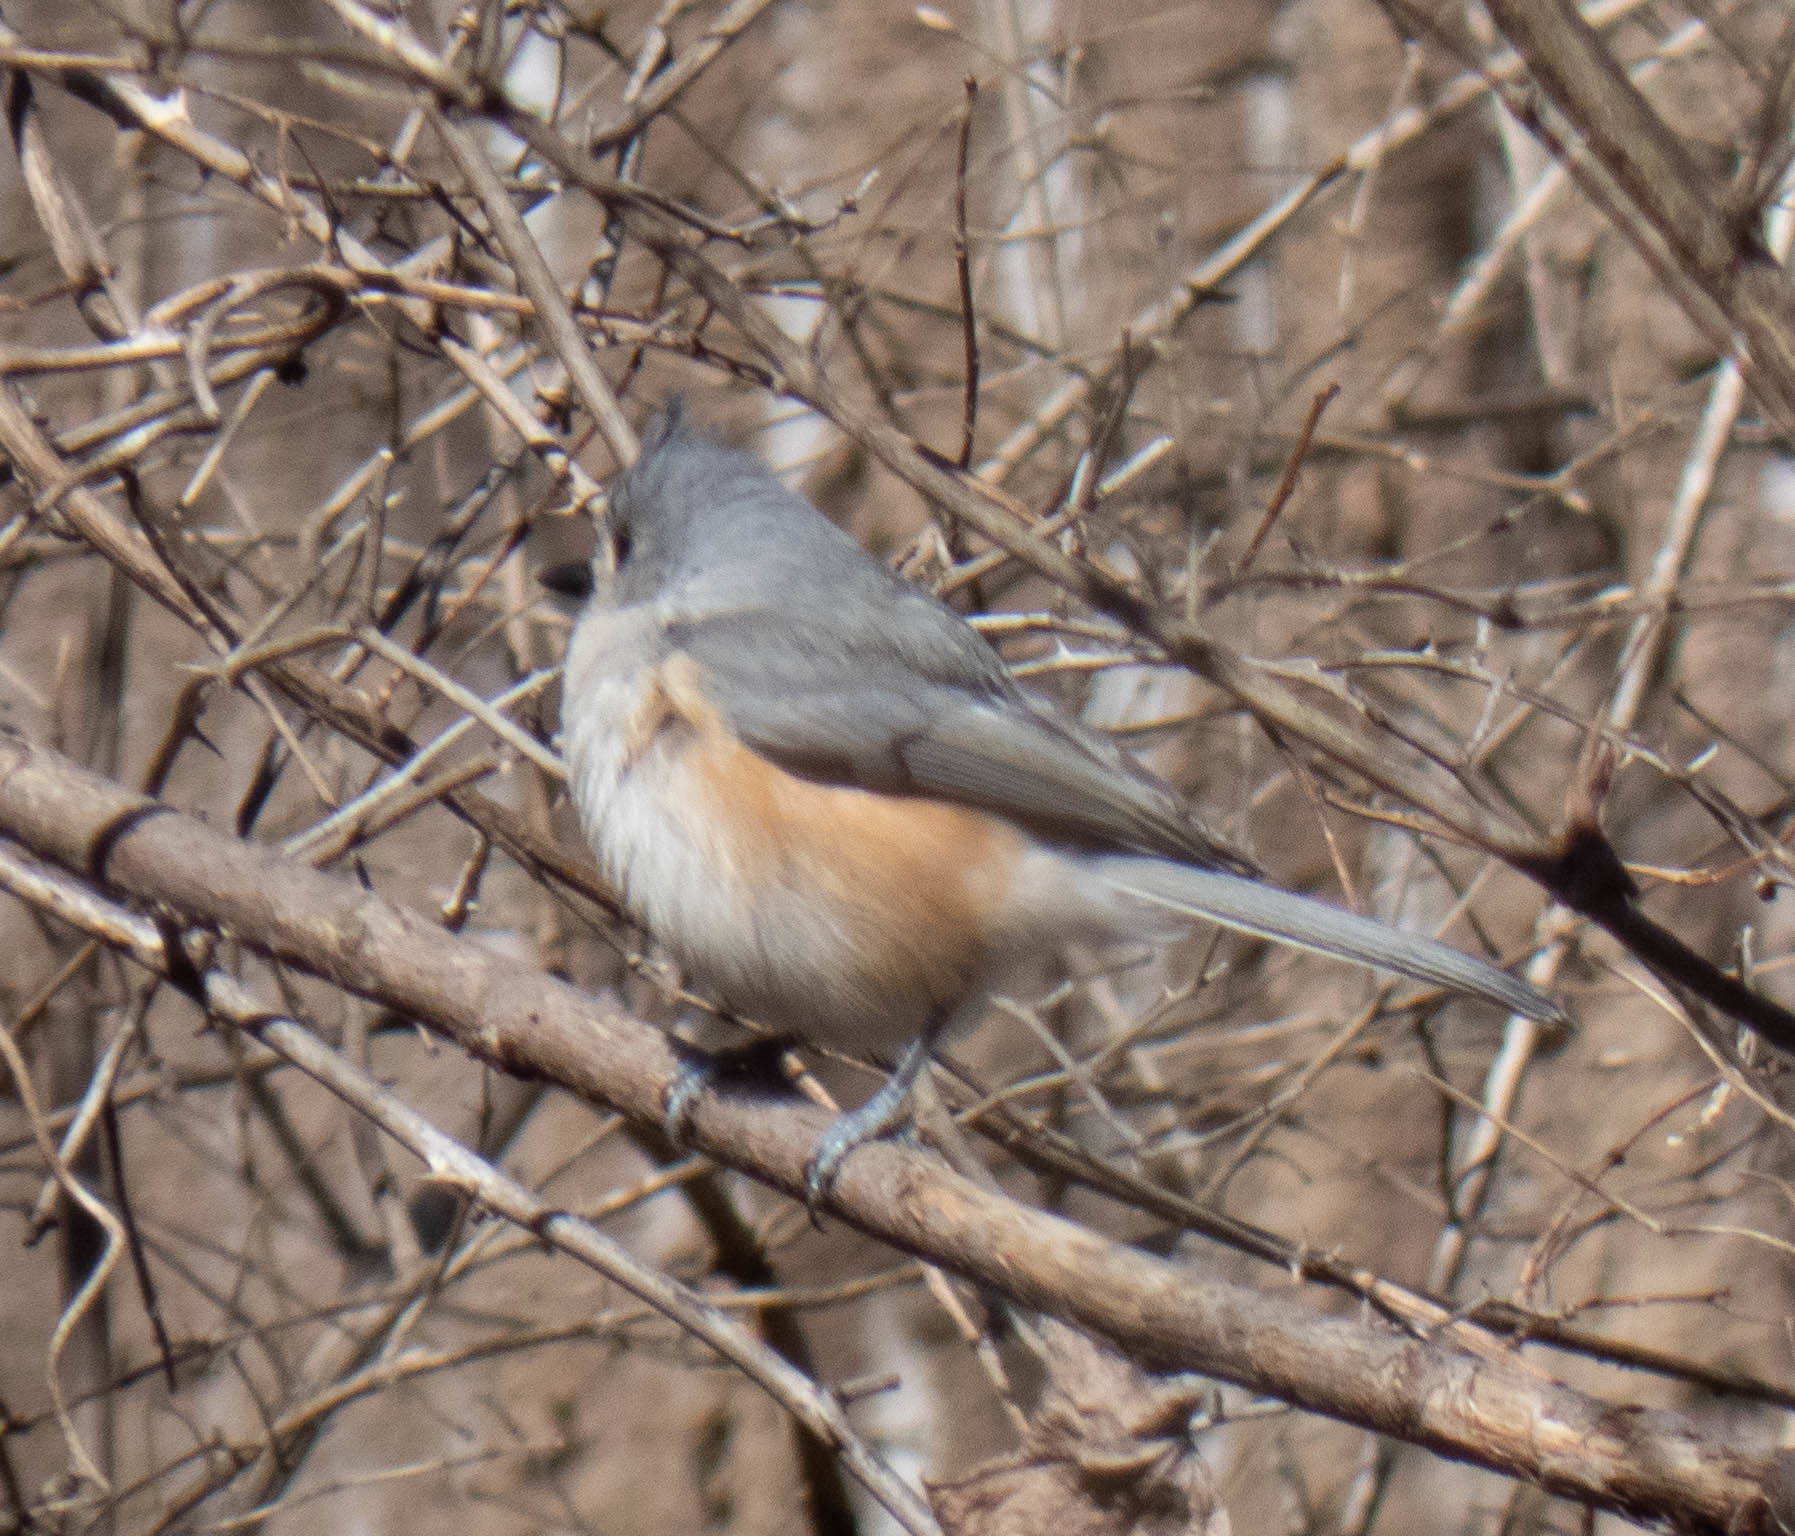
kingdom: Animalia
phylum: Chordata
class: Aves
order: Passeriformes
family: Paridae
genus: Baeolophus
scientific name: Baeolophus bicolor
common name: Tufted titmouse
